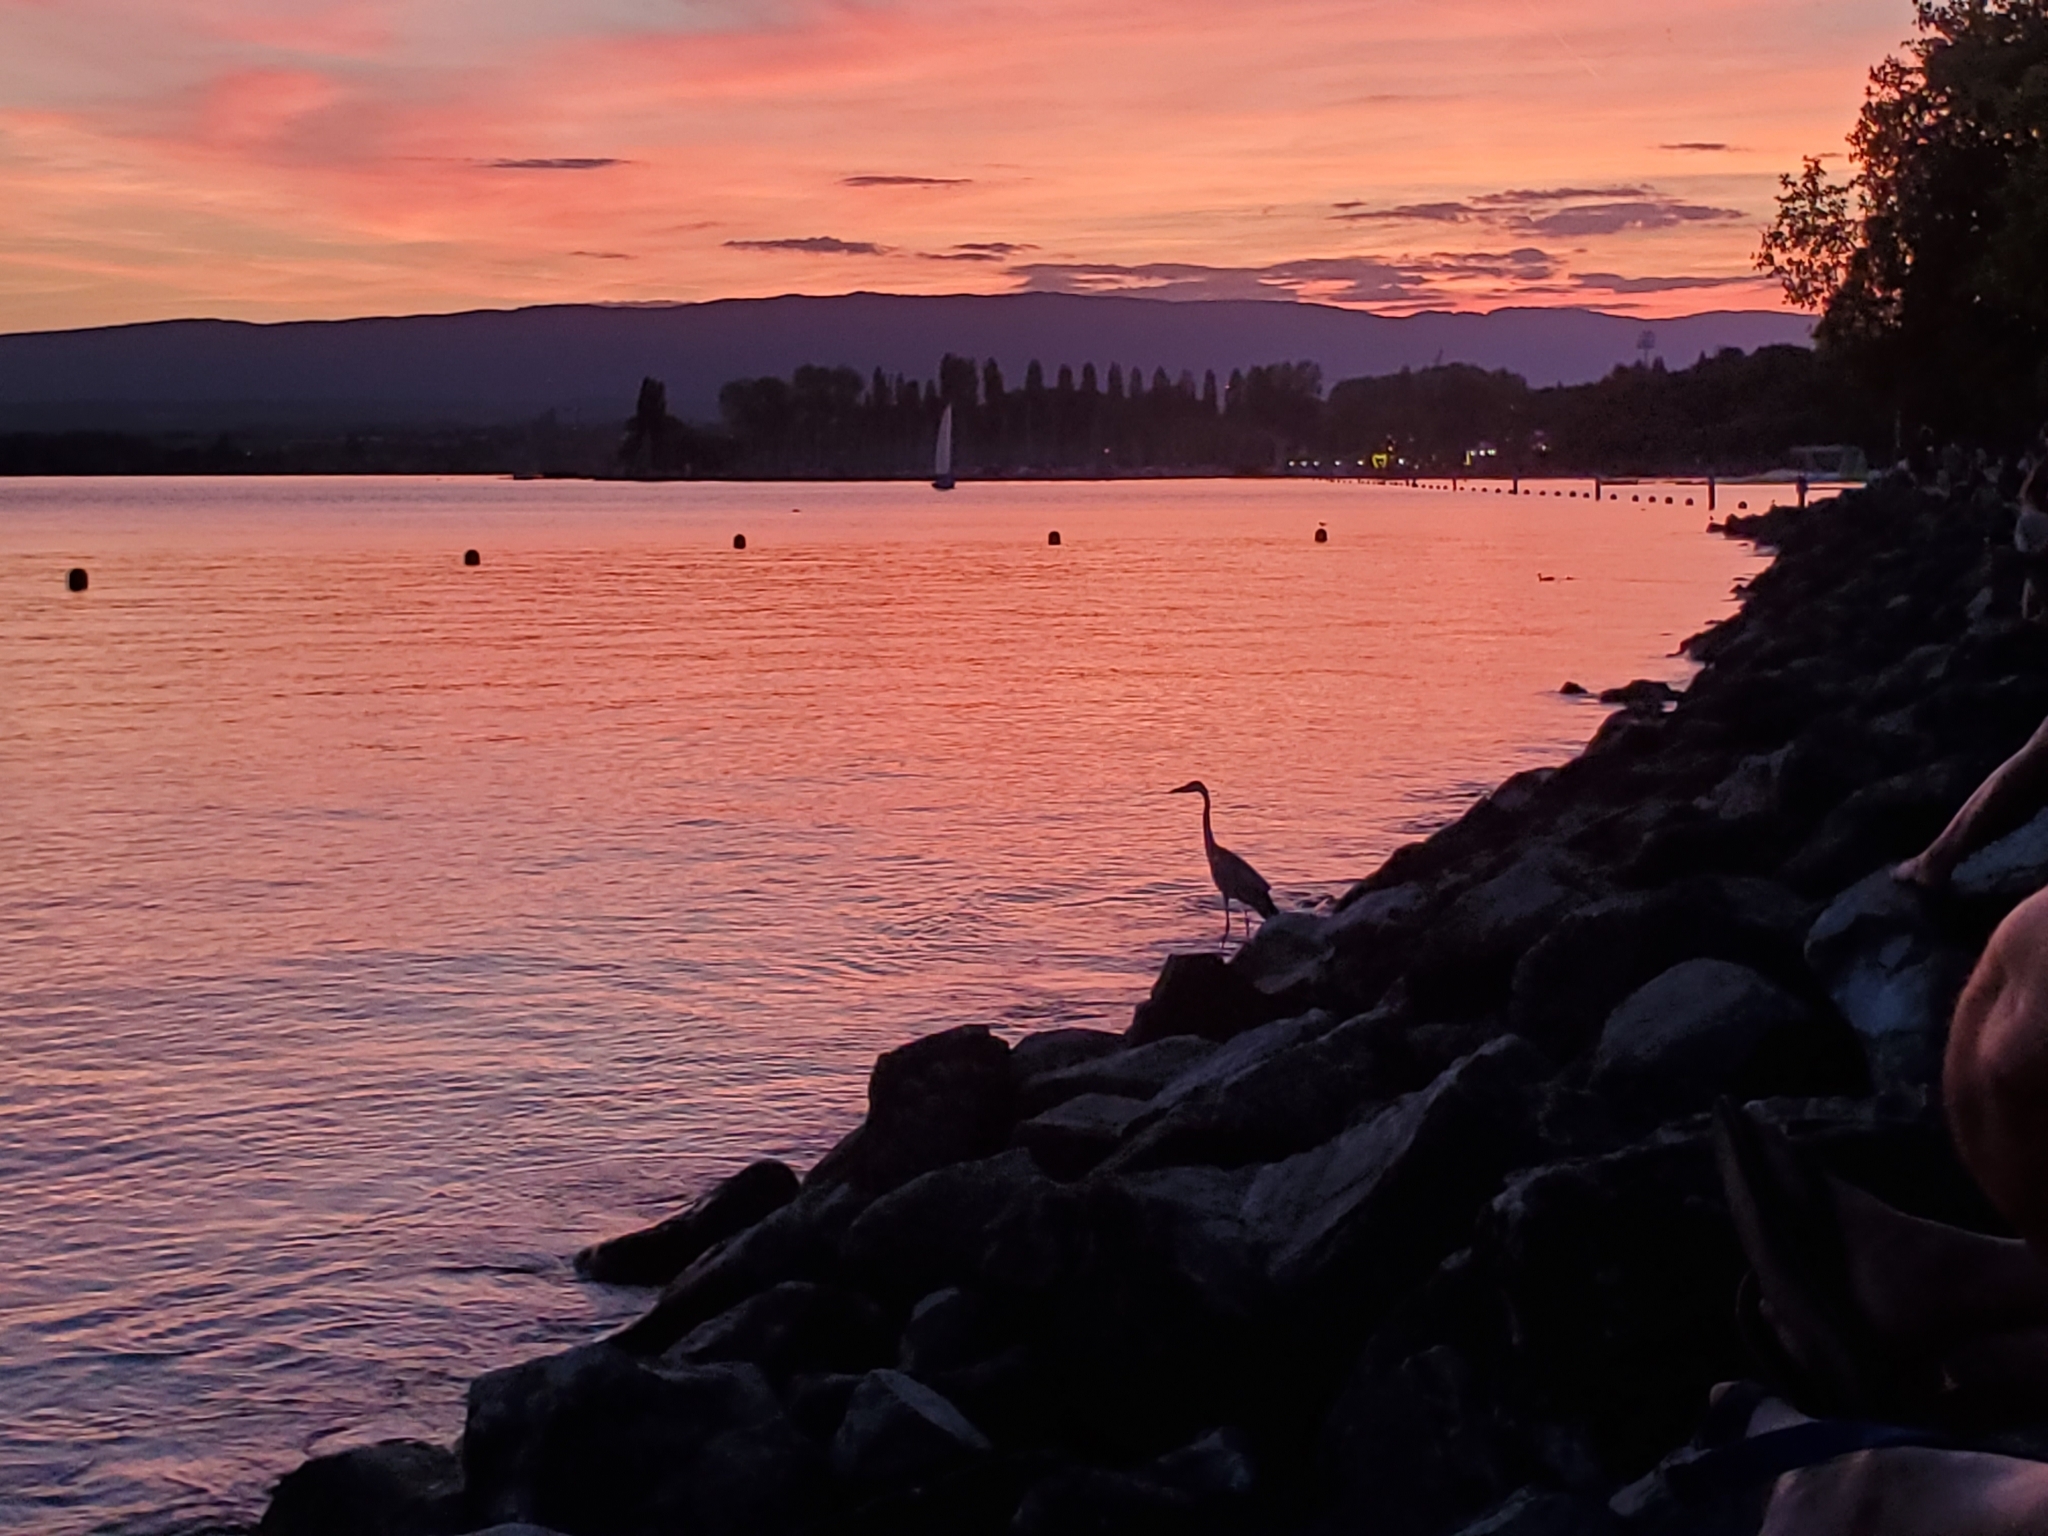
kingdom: Animalia
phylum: Chordata
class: Aves
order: Pelecaniformes
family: Ardeidae
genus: Ardea
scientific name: Ardea cinerea
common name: Grey heron
